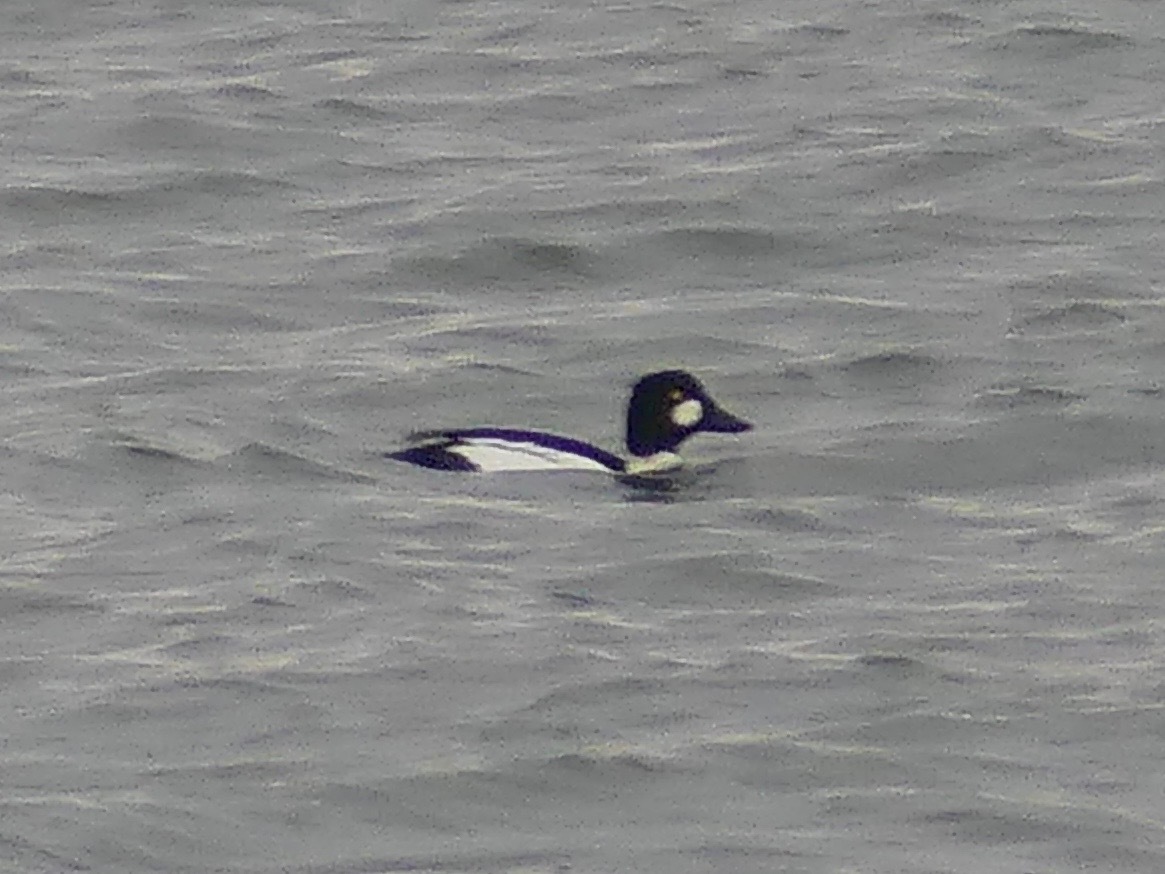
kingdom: Animalia
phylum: Chordata
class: Aves
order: Anseriformes
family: Anatidae
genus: Bucephala
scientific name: Bucephala clangula
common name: Common goldeneye
